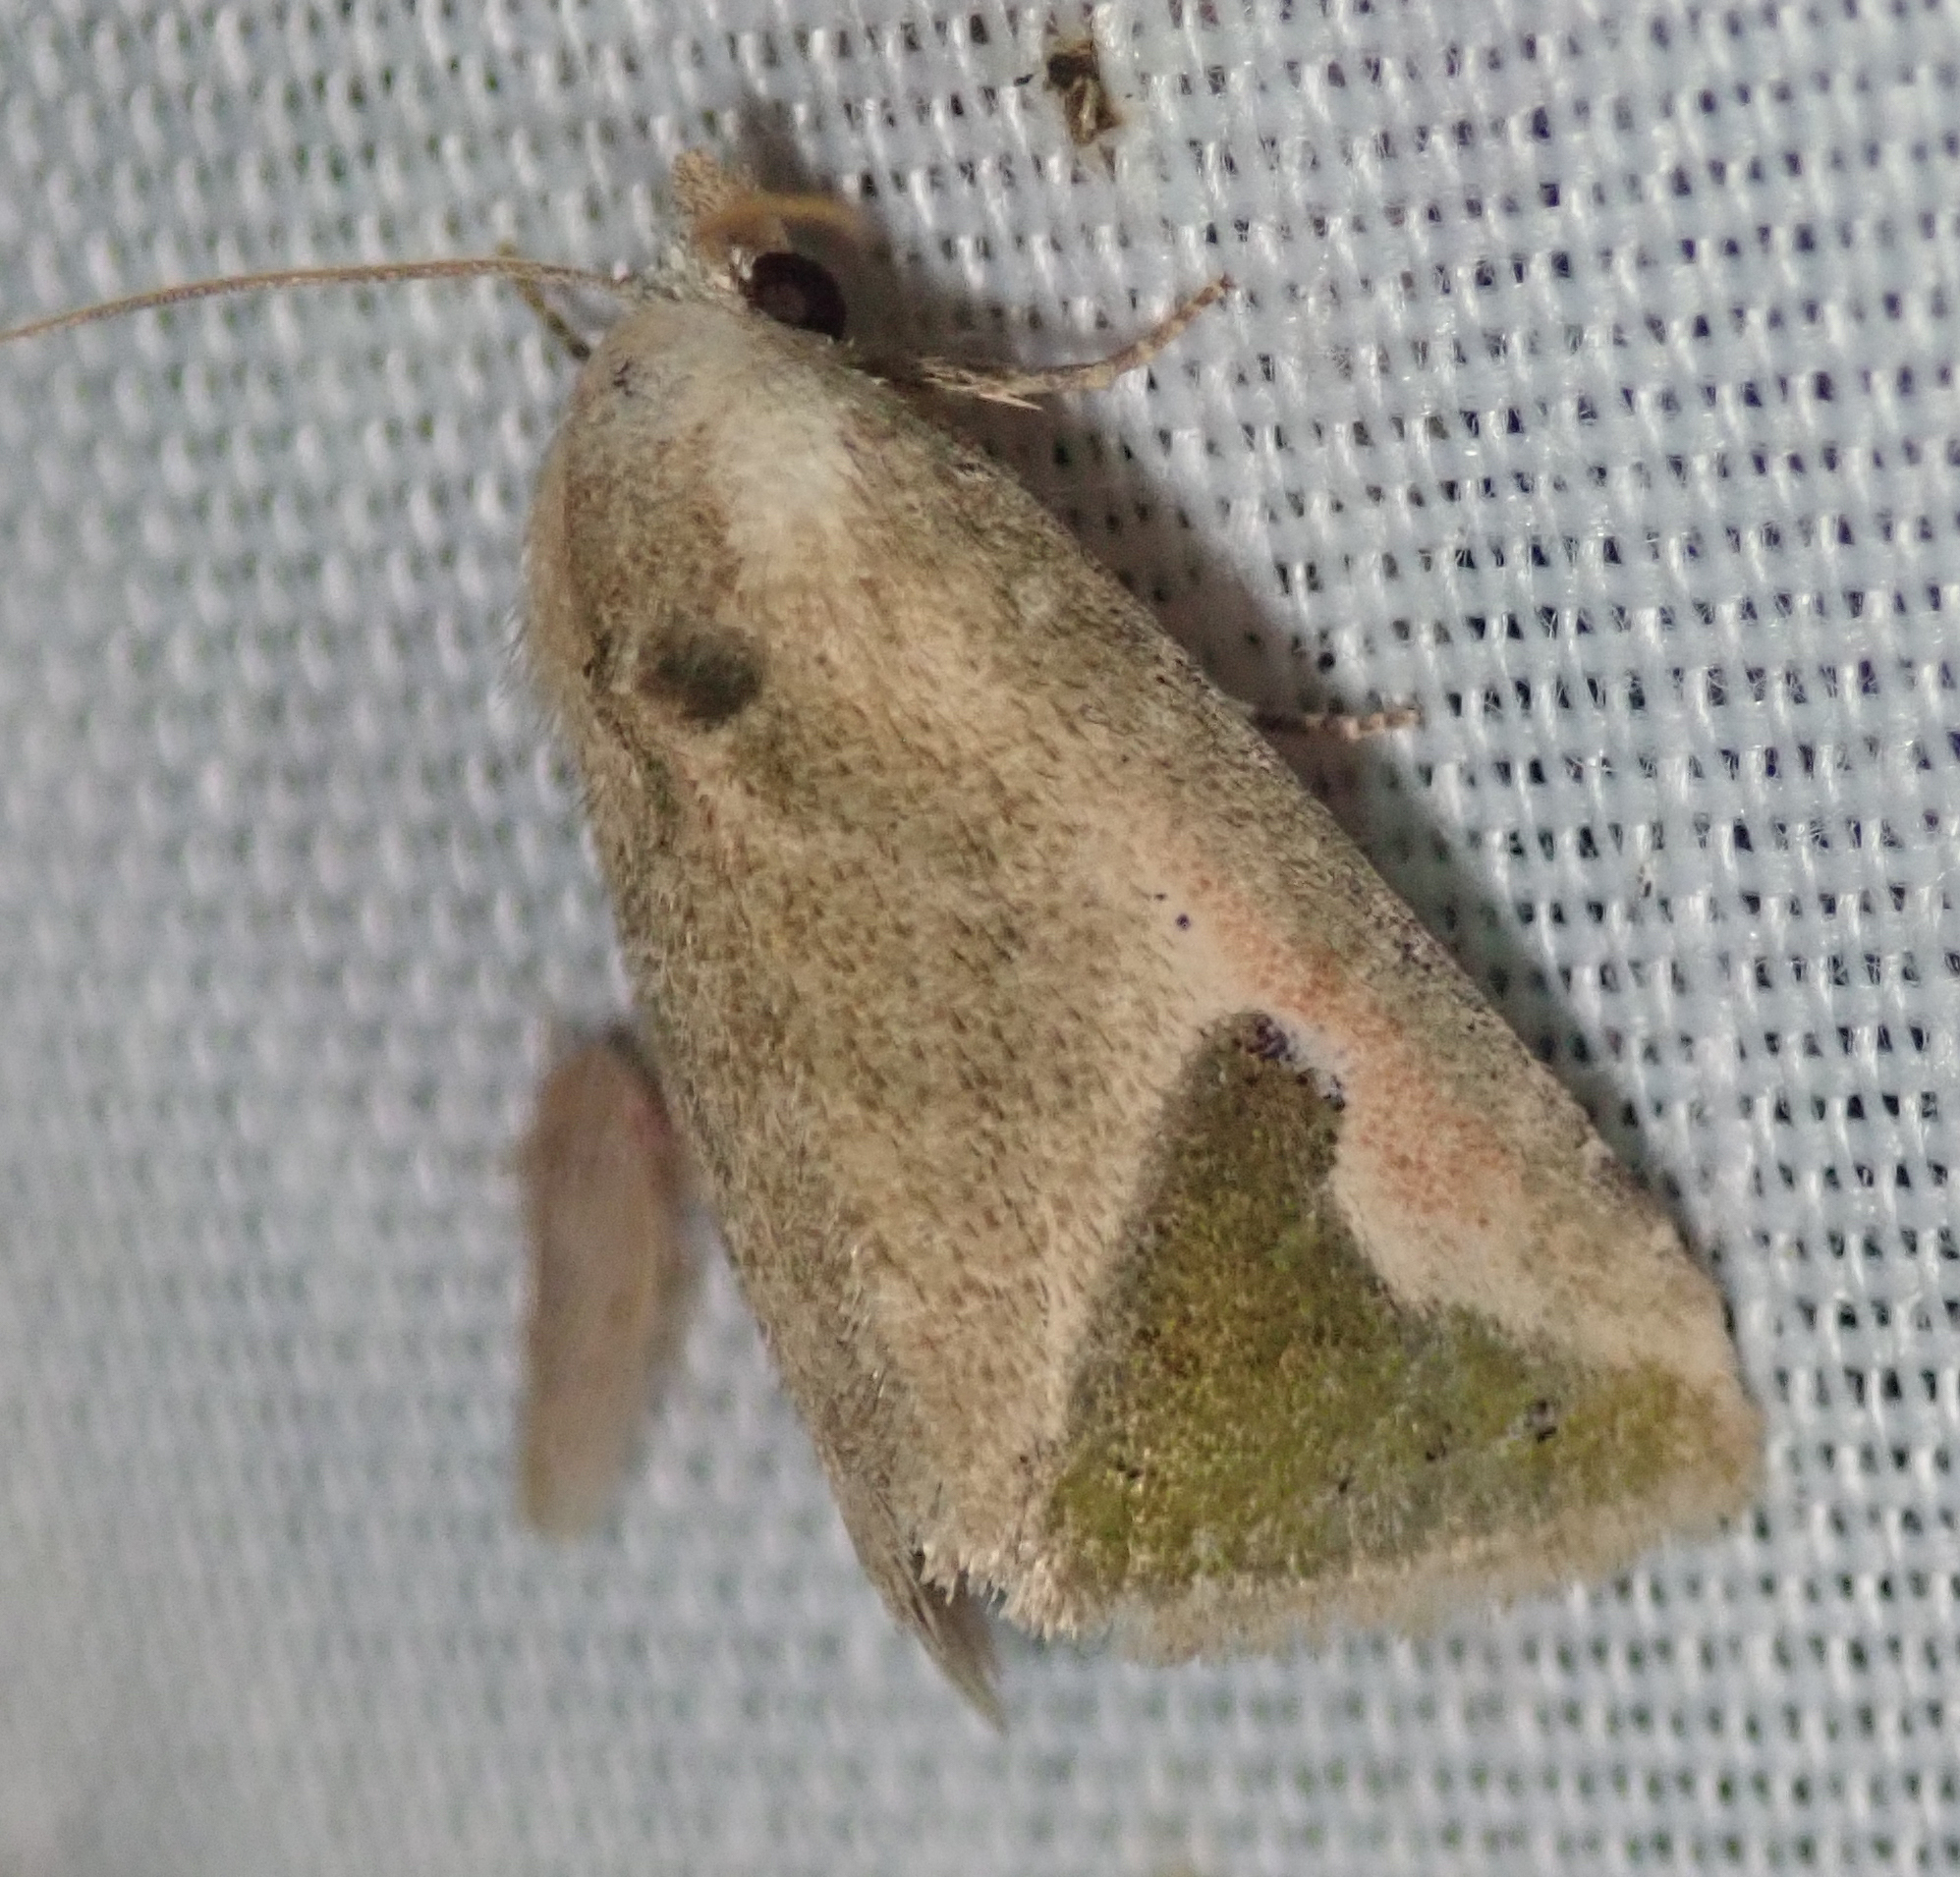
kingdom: Animalia
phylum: Arthropoda
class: Insecta
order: Lepidoptera
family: Noctuidae
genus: Autoba
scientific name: Autoba admota
